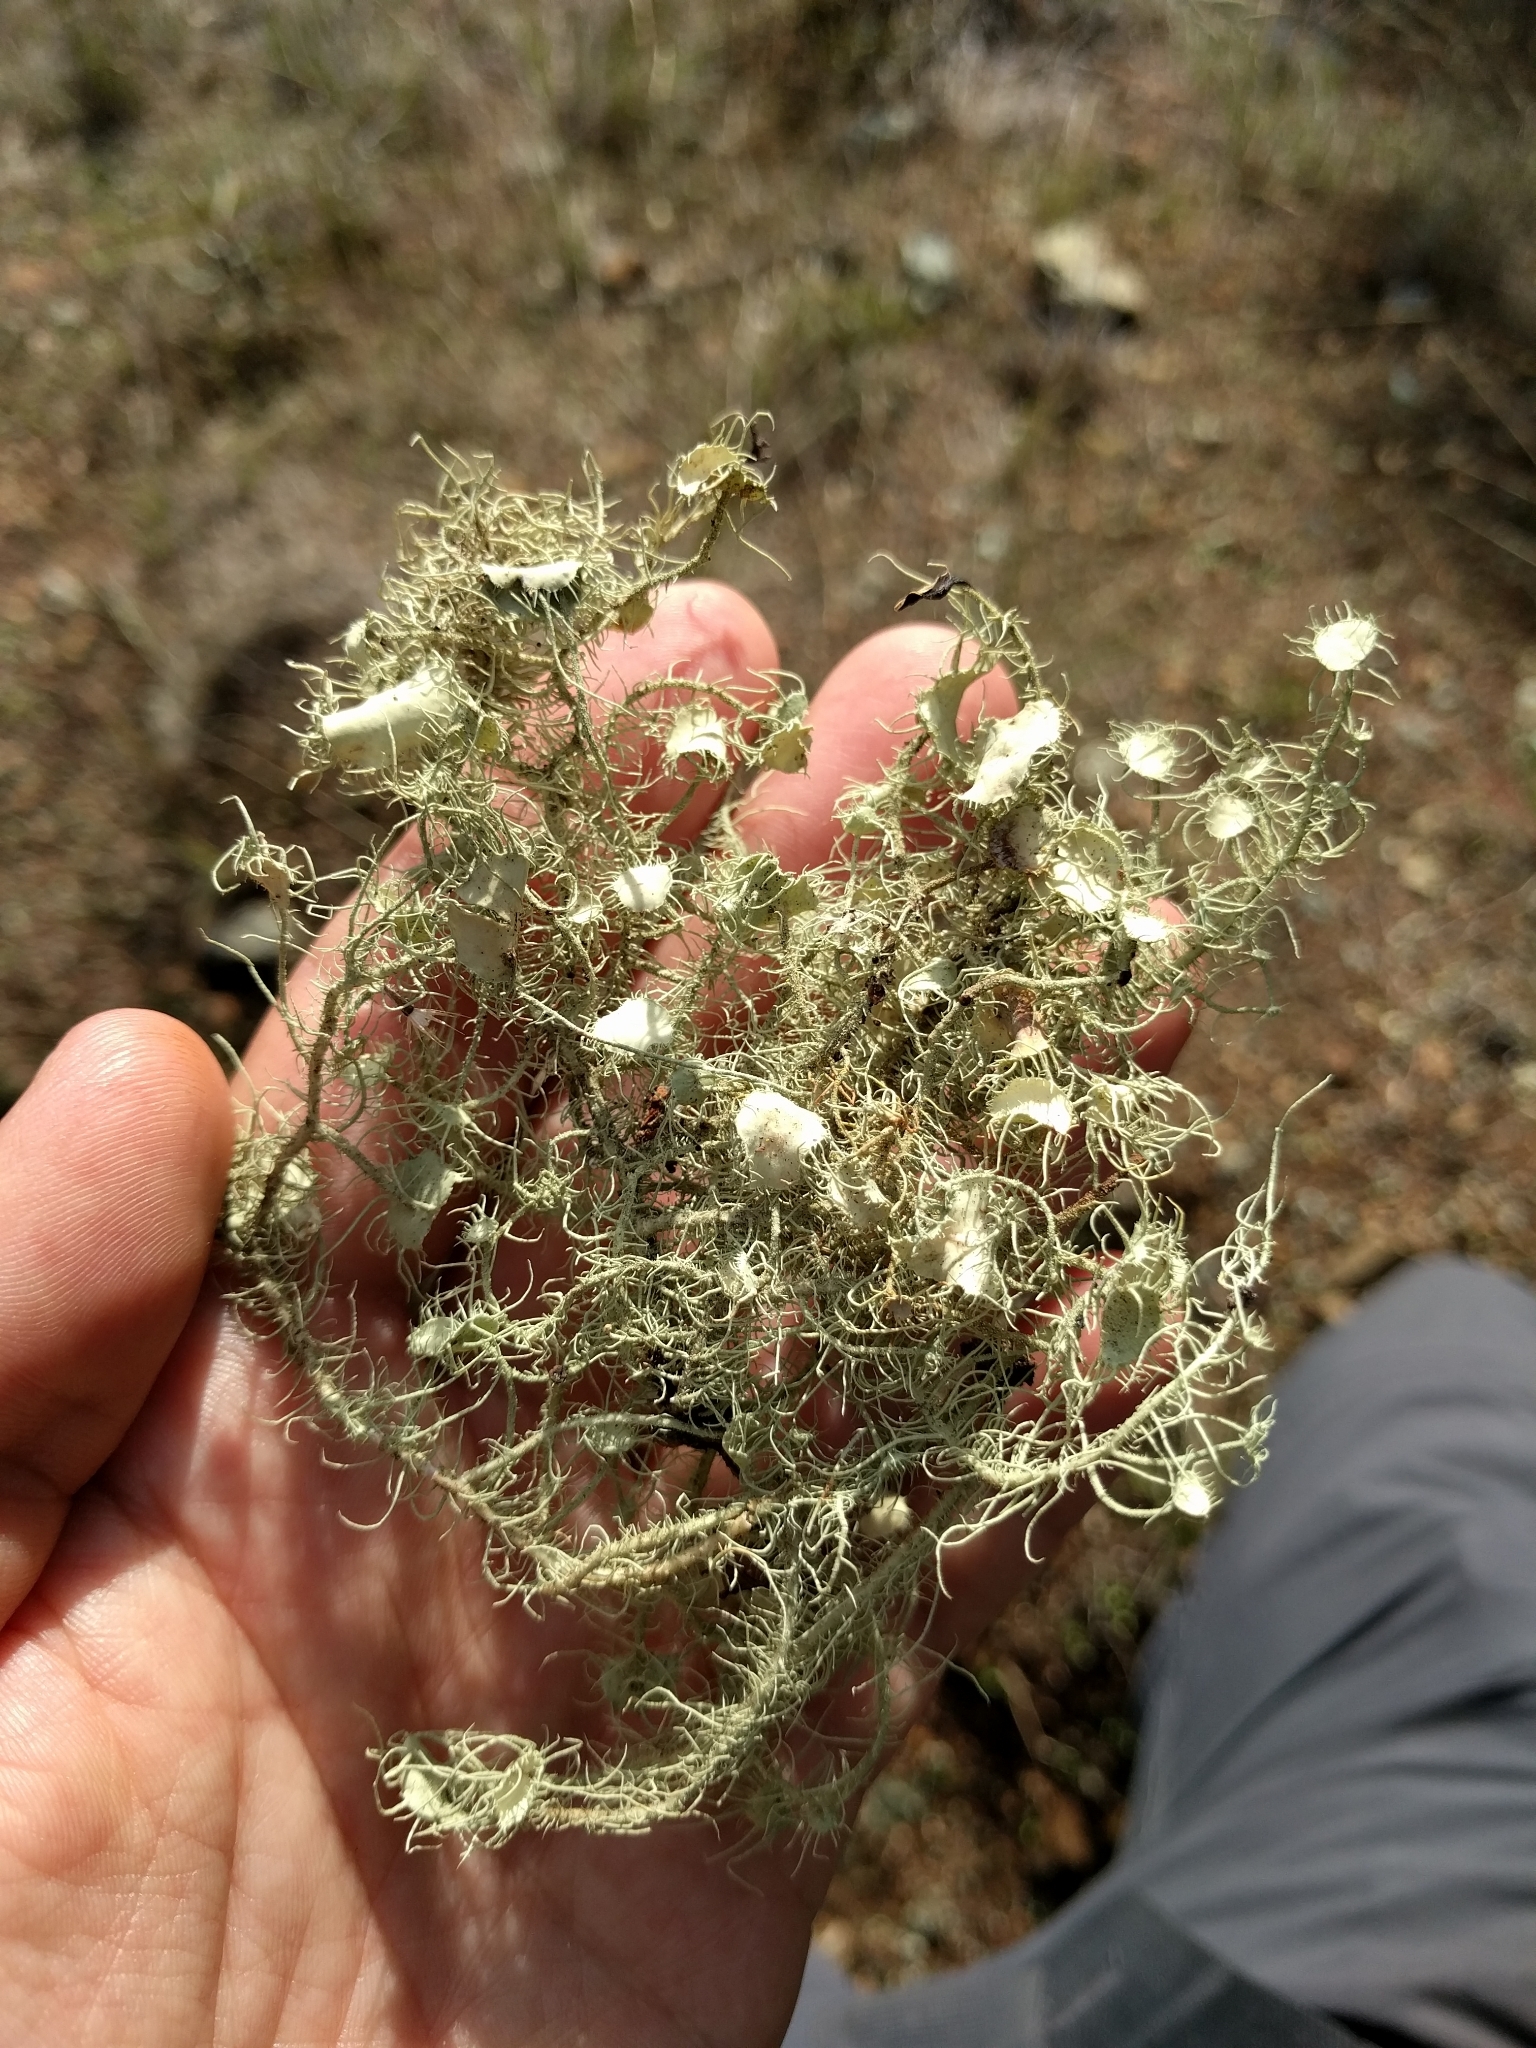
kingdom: Fungi
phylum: Ascomycota
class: Lecanoromycetes
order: Lecanorales
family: Parmeliaceae
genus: Usnea
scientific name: Usnea intermedia
